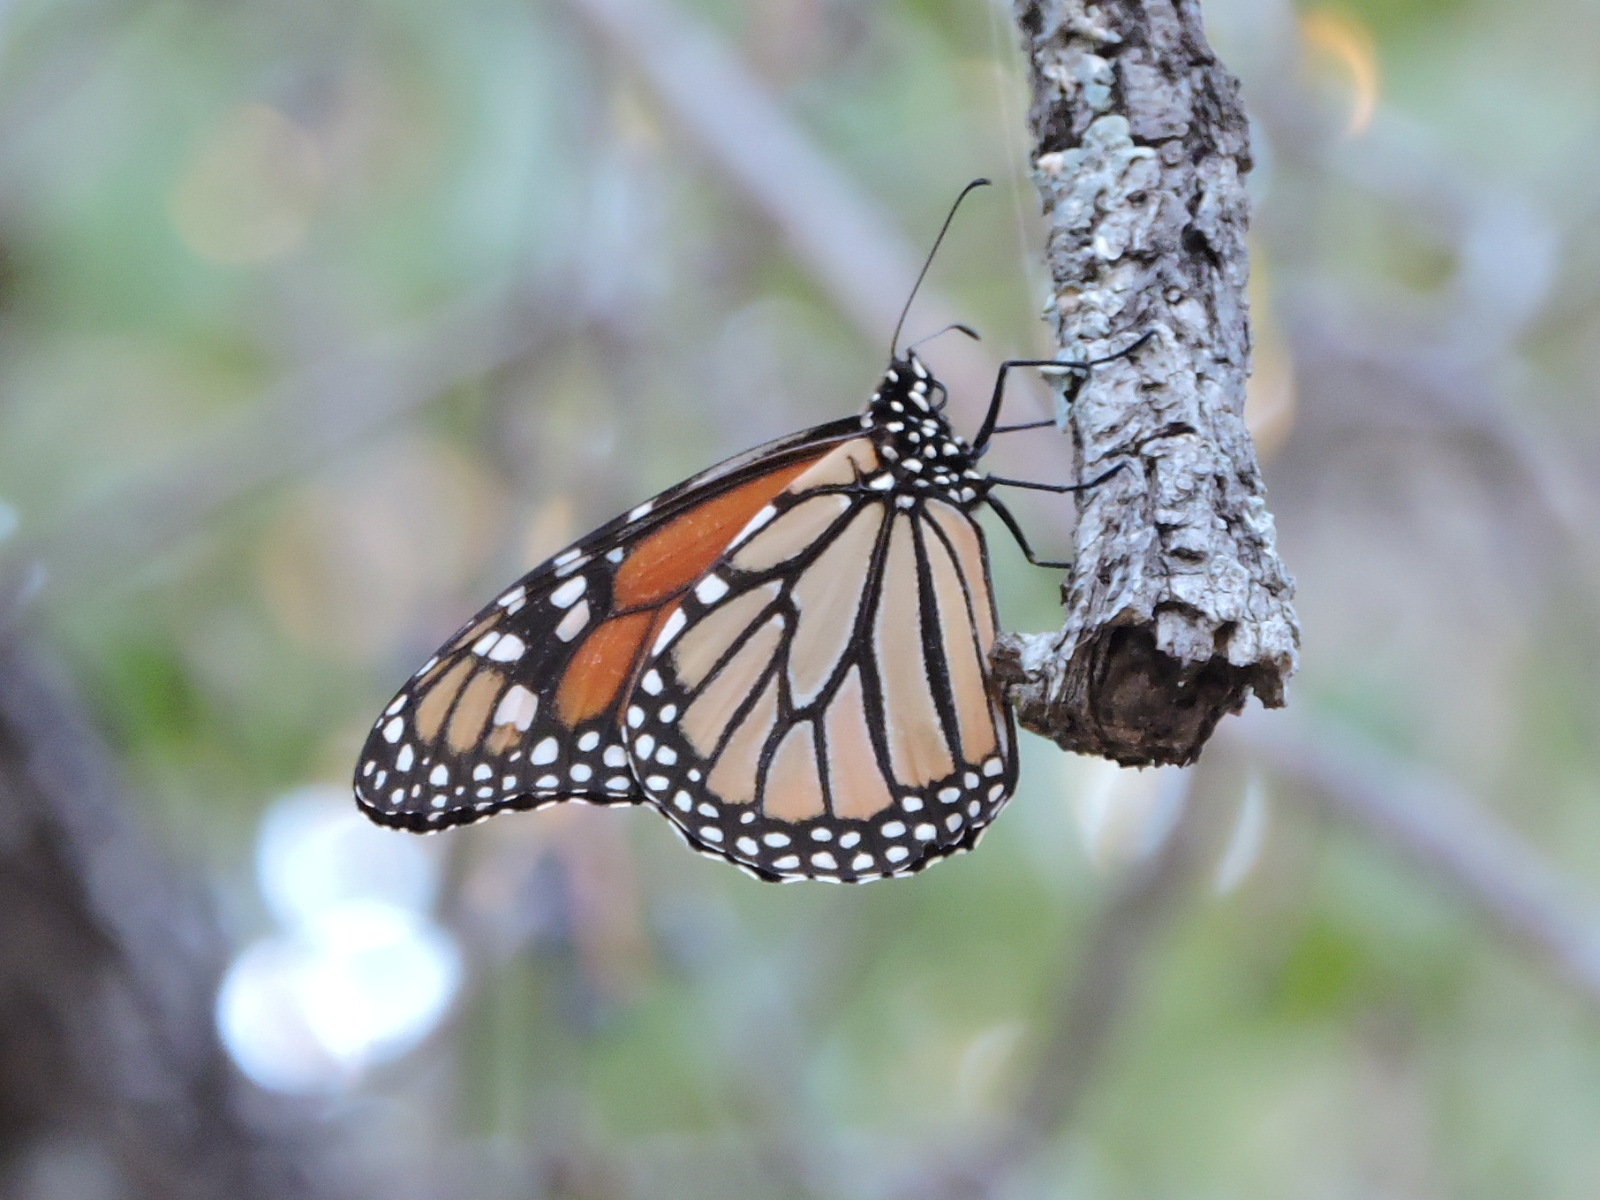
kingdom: Animalia
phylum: Arthropoda
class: Insecta
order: Lepidoptera
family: Nymphalidae
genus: Danaus
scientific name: Danaus plexippus
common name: Monarch
